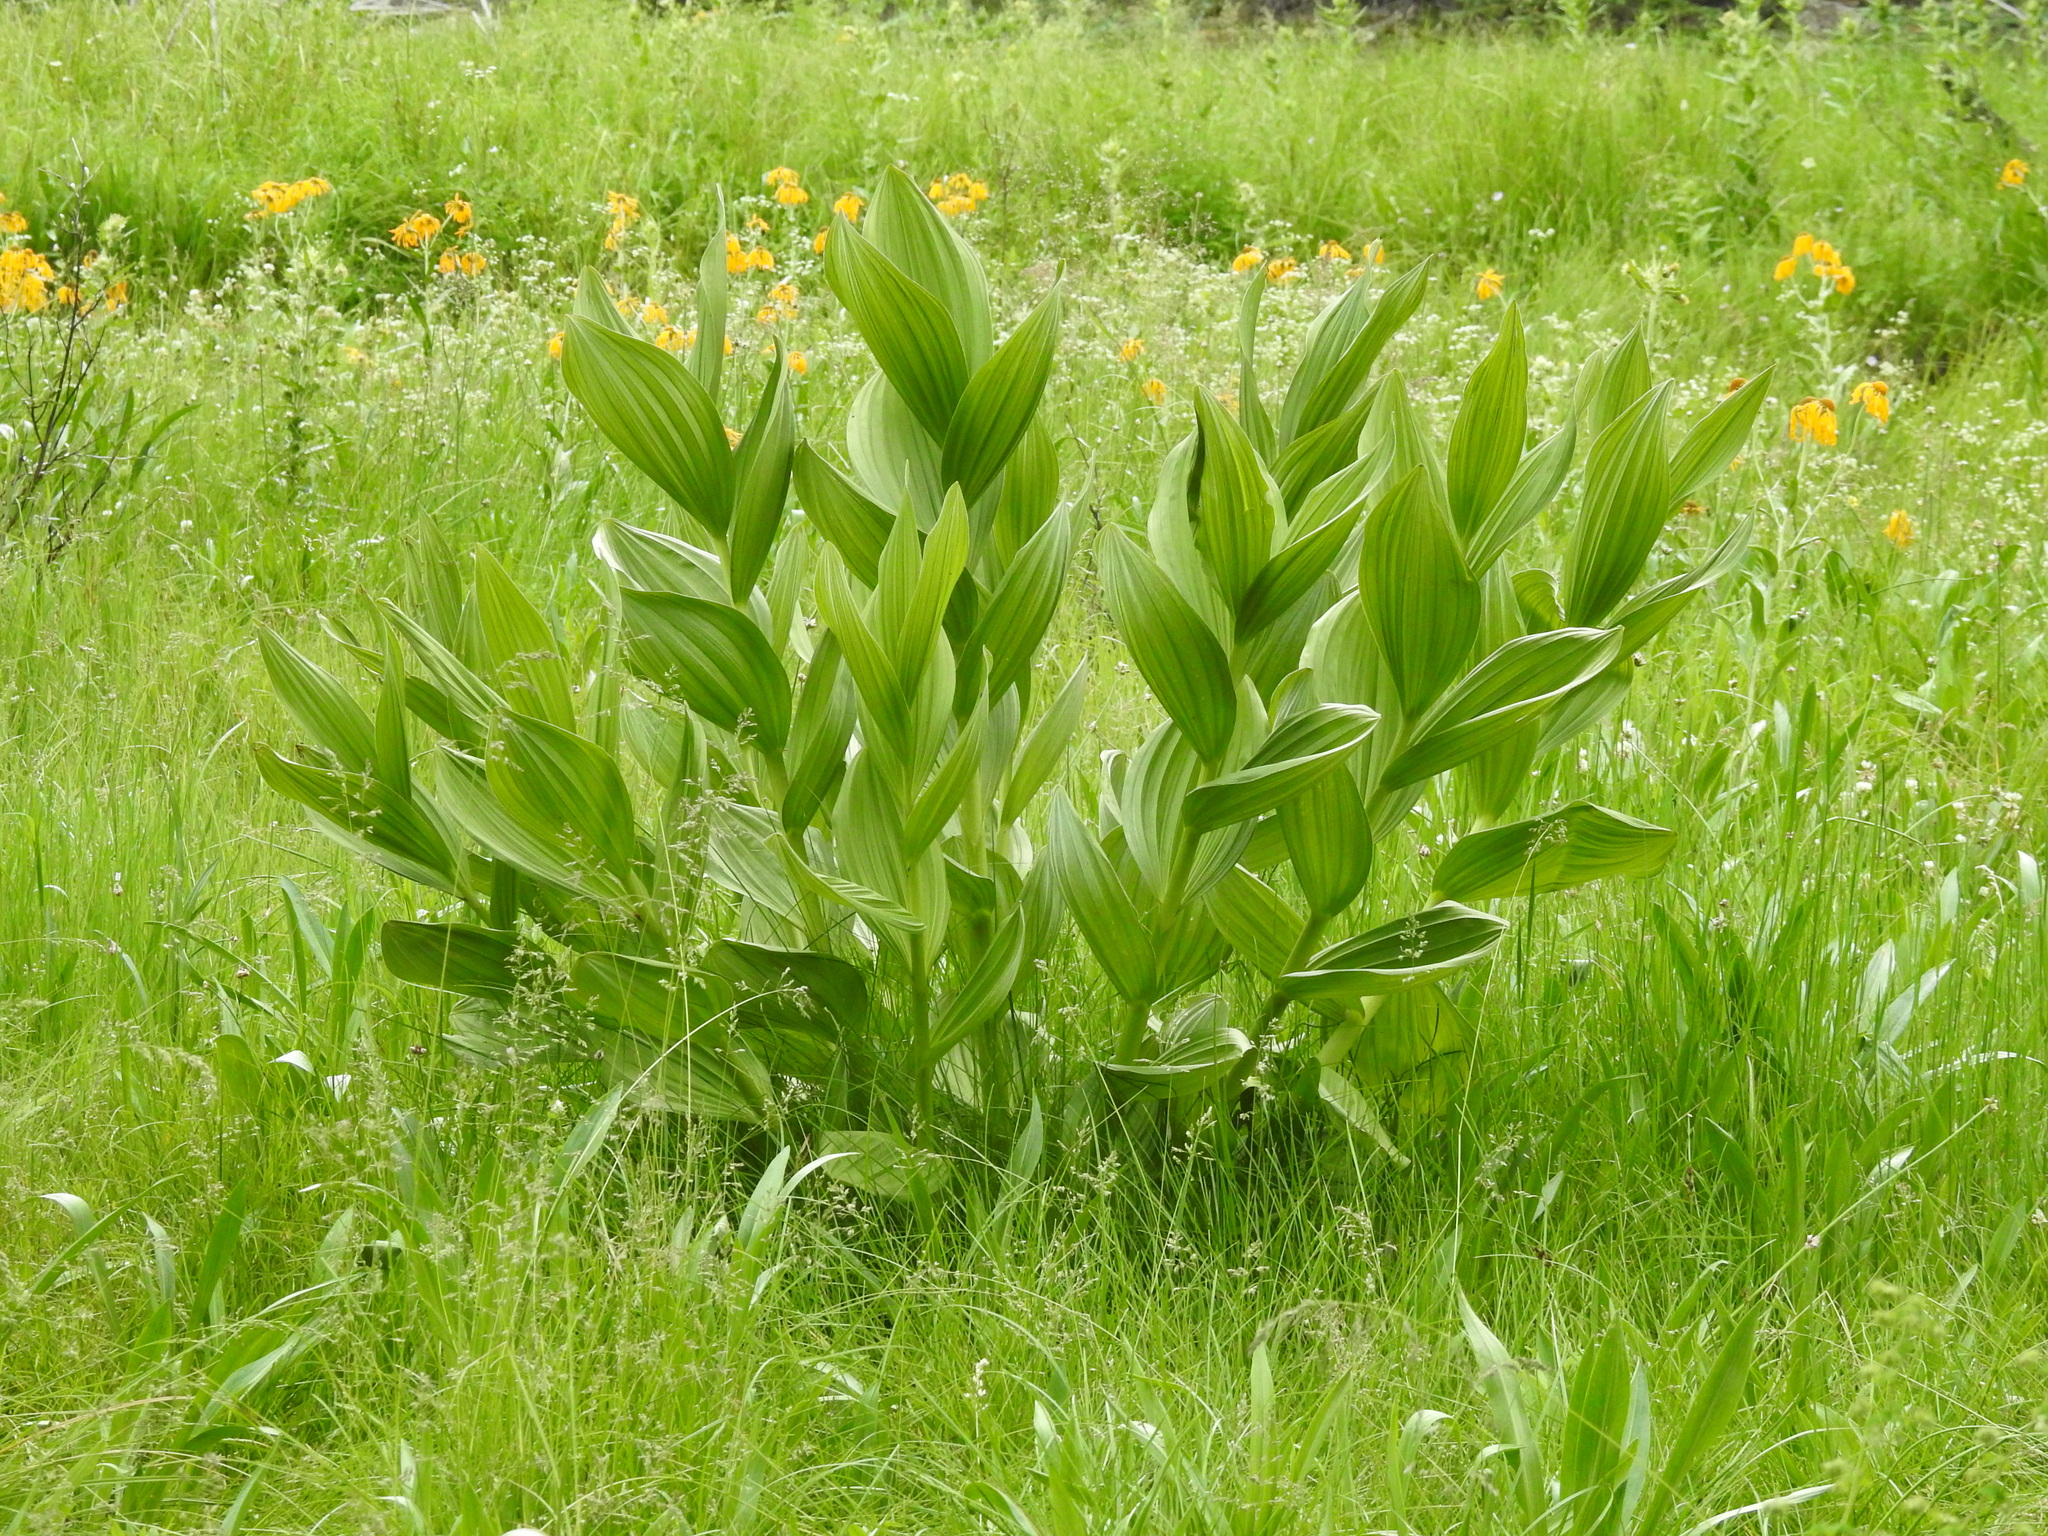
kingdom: Plantae
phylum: Tracheophyta
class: Liliopsida
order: Liliales
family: Melanthiaceae
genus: Veratrum
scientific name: Veratrum californicum
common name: California veratrum
